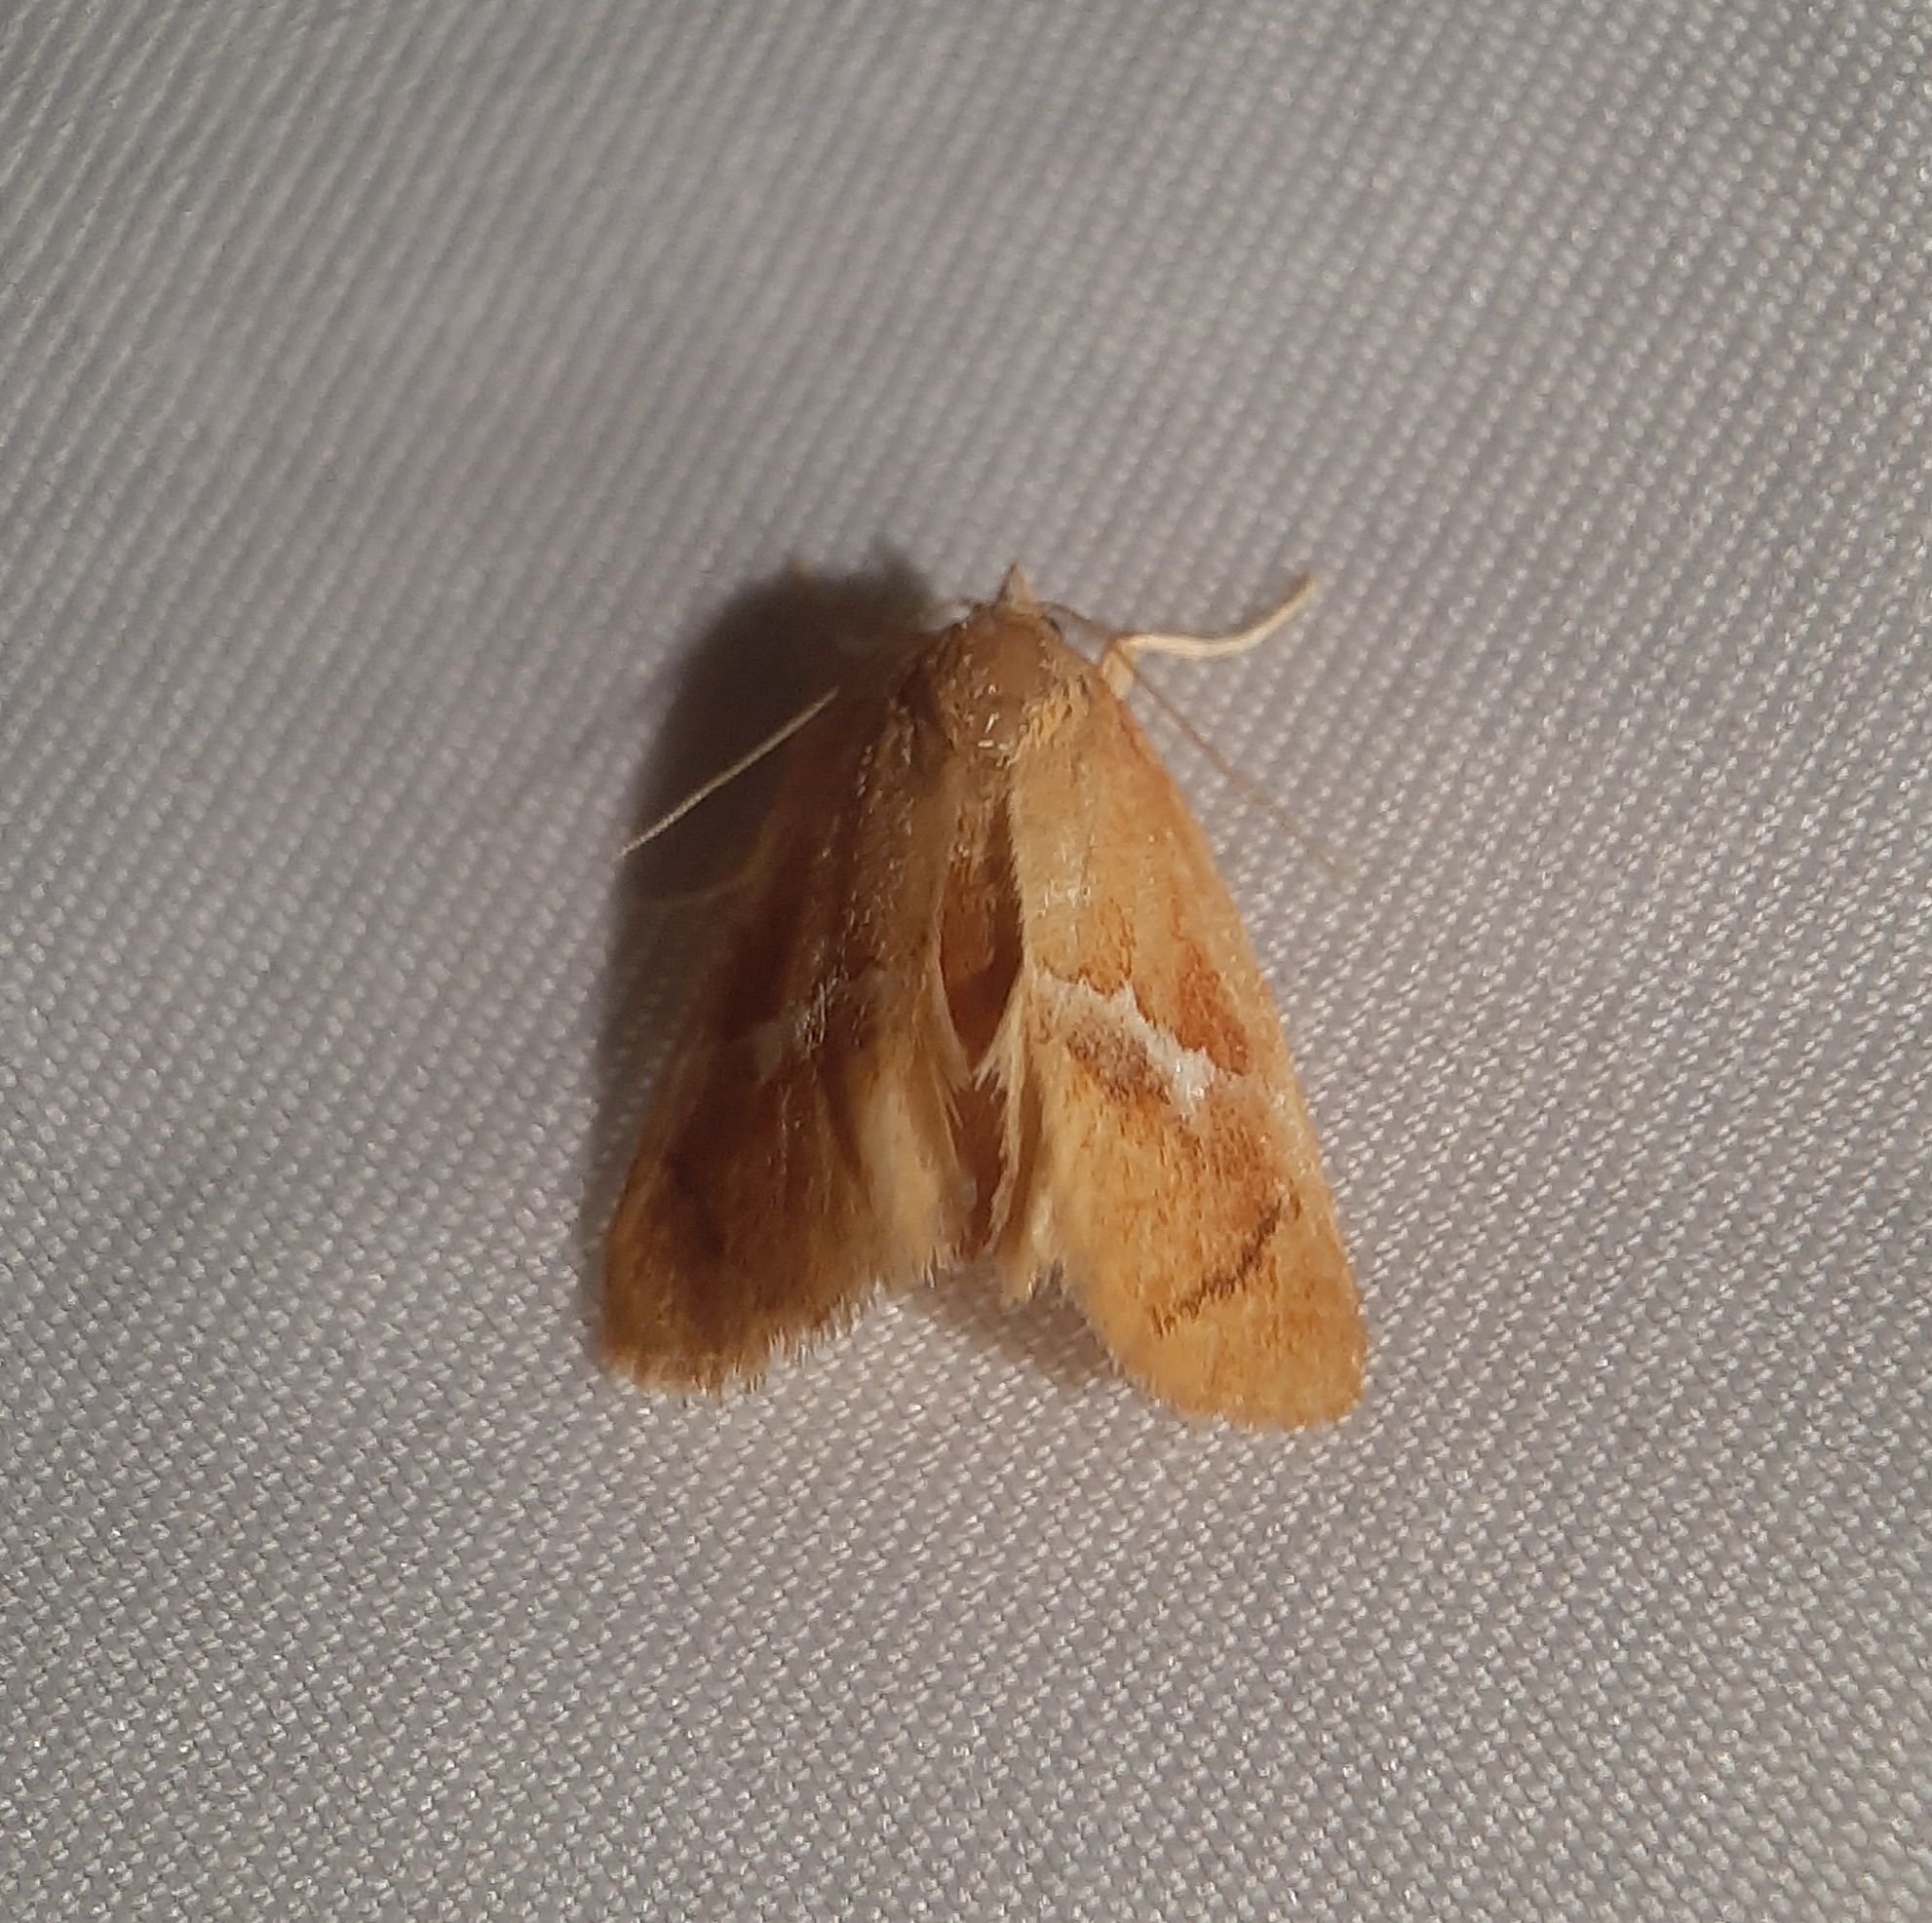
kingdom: Animalia
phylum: Arthropoda
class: Insecta
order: Lepidoptera
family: Limacodidae
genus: Lithacodes
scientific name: Lithacodes fasciola
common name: Yellow-shouldered slug moth
